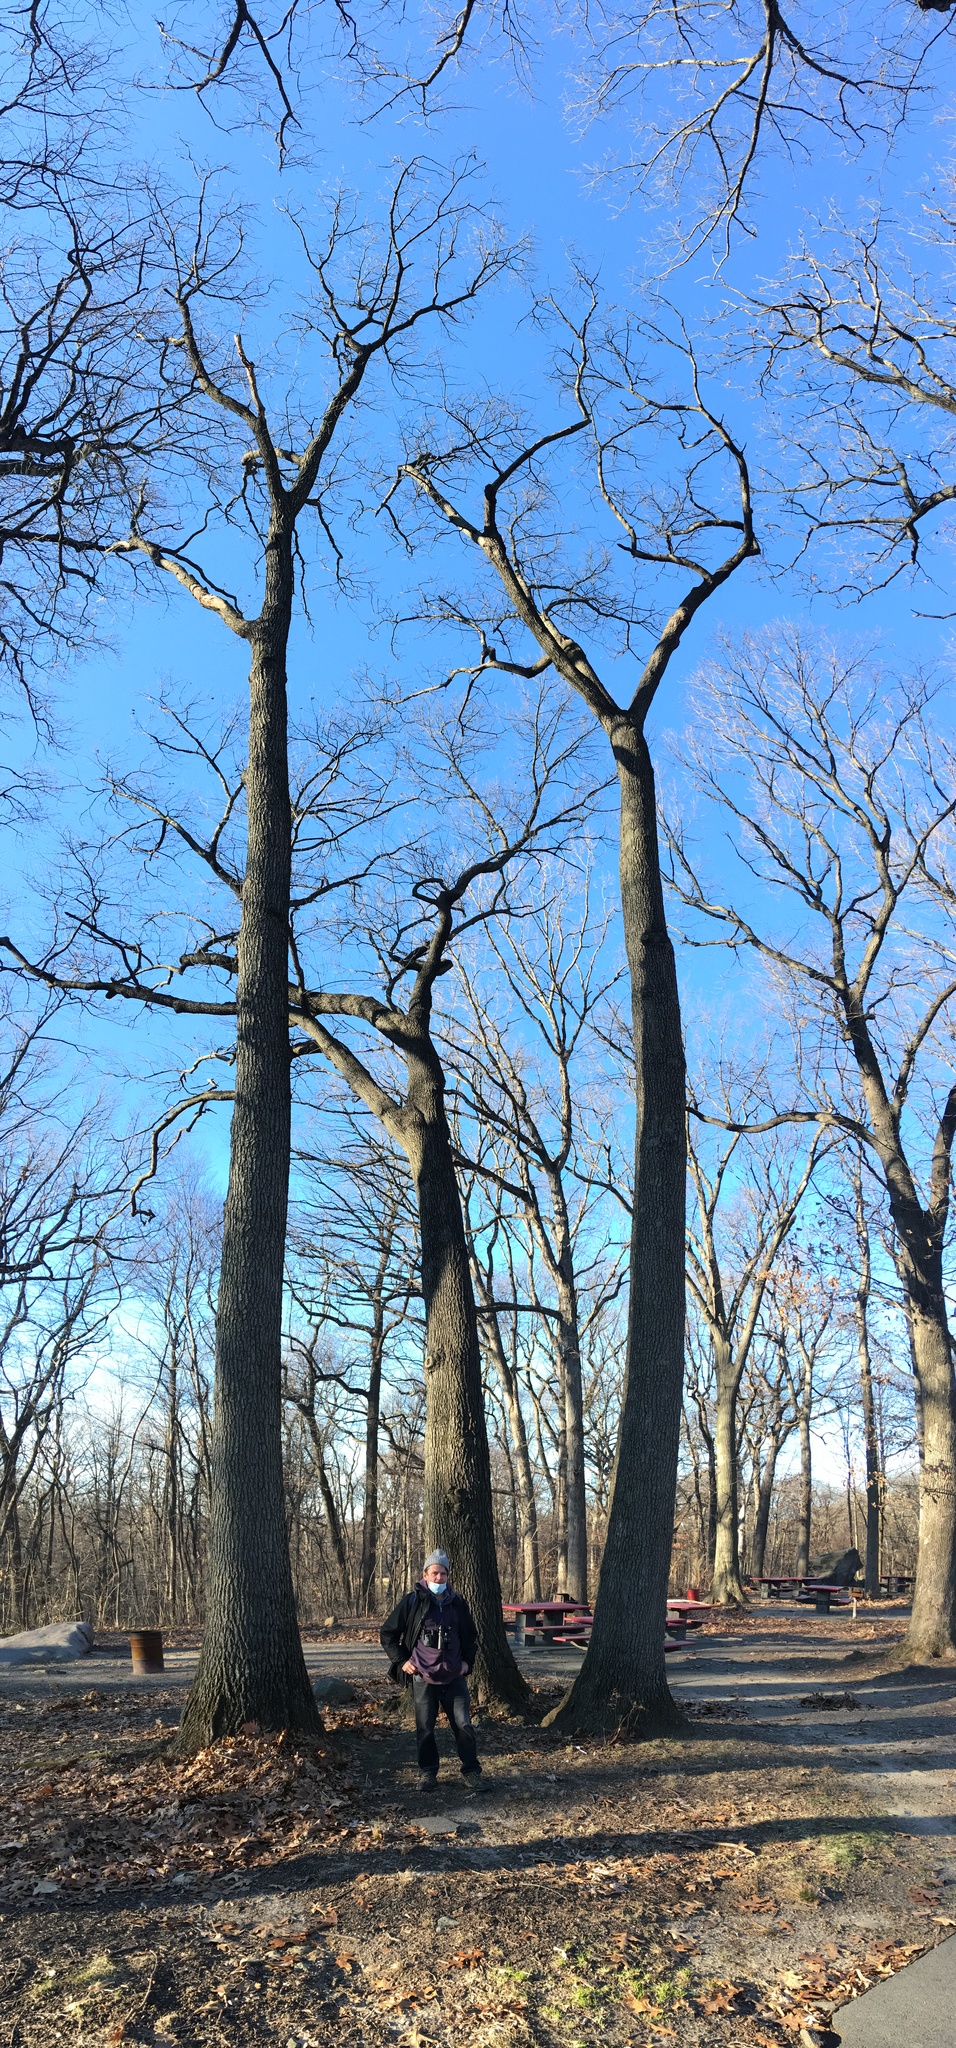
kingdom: Plantae
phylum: Tracheophyta
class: Magnoliopsida
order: Fagales
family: Fagaceae
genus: Quercus
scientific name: Quercus velutina
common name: Black oak
